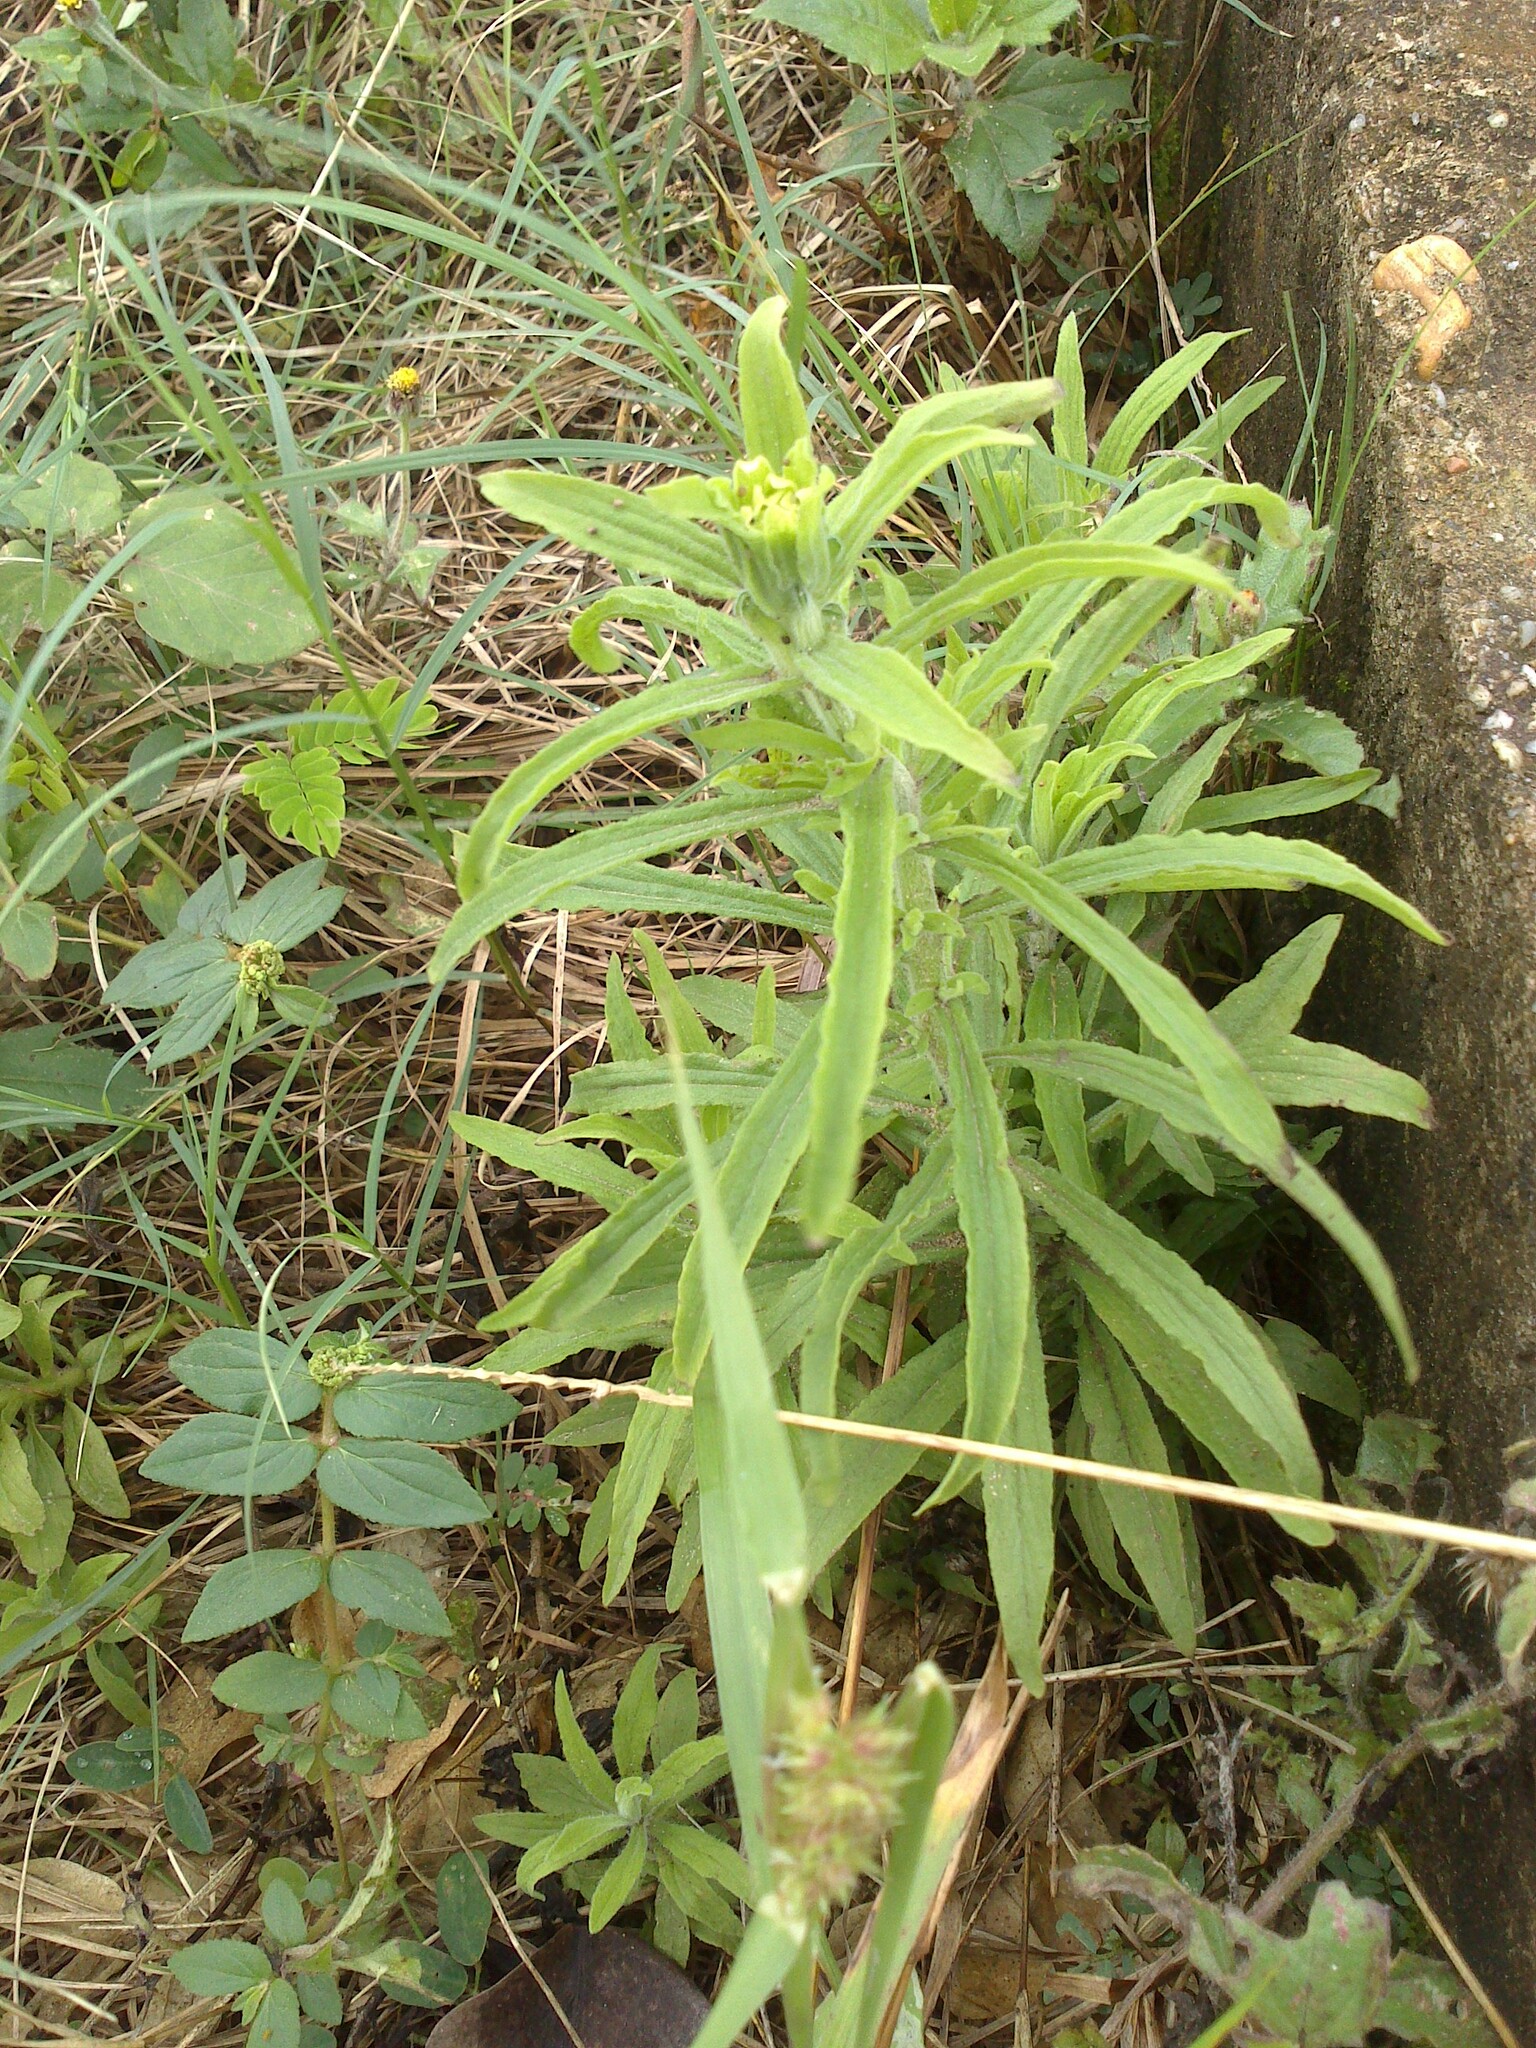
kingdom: Plantae
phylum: Tracheophyta
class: Magnoliopsida
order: Lamiales
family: Orobanchaceae
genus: Castilleja
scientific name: Castilleja arvensis
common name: Indian paintbrush
